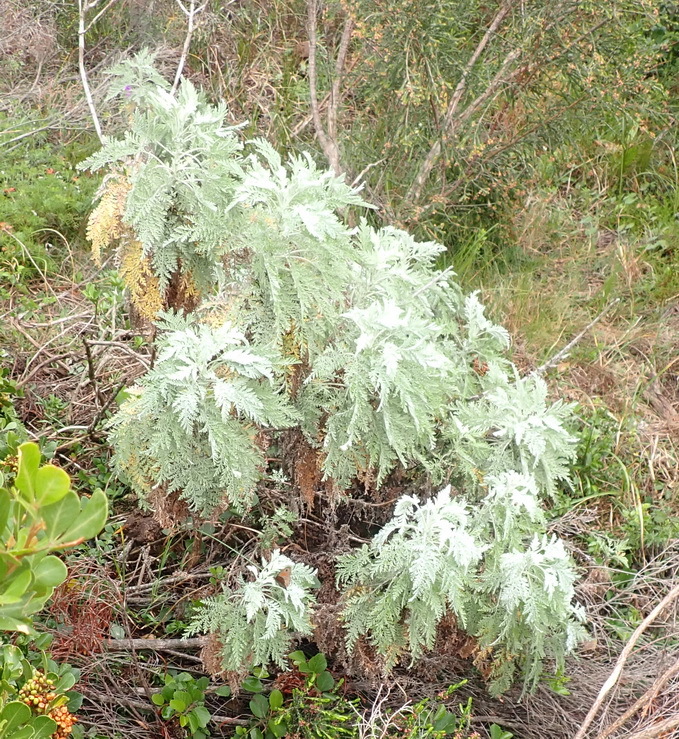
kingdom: Plantae
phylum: Tracheophyta
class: Magnoliopsida
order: Asterales
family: Asteraceae
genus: Artemisia
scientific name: Artemisia afra
